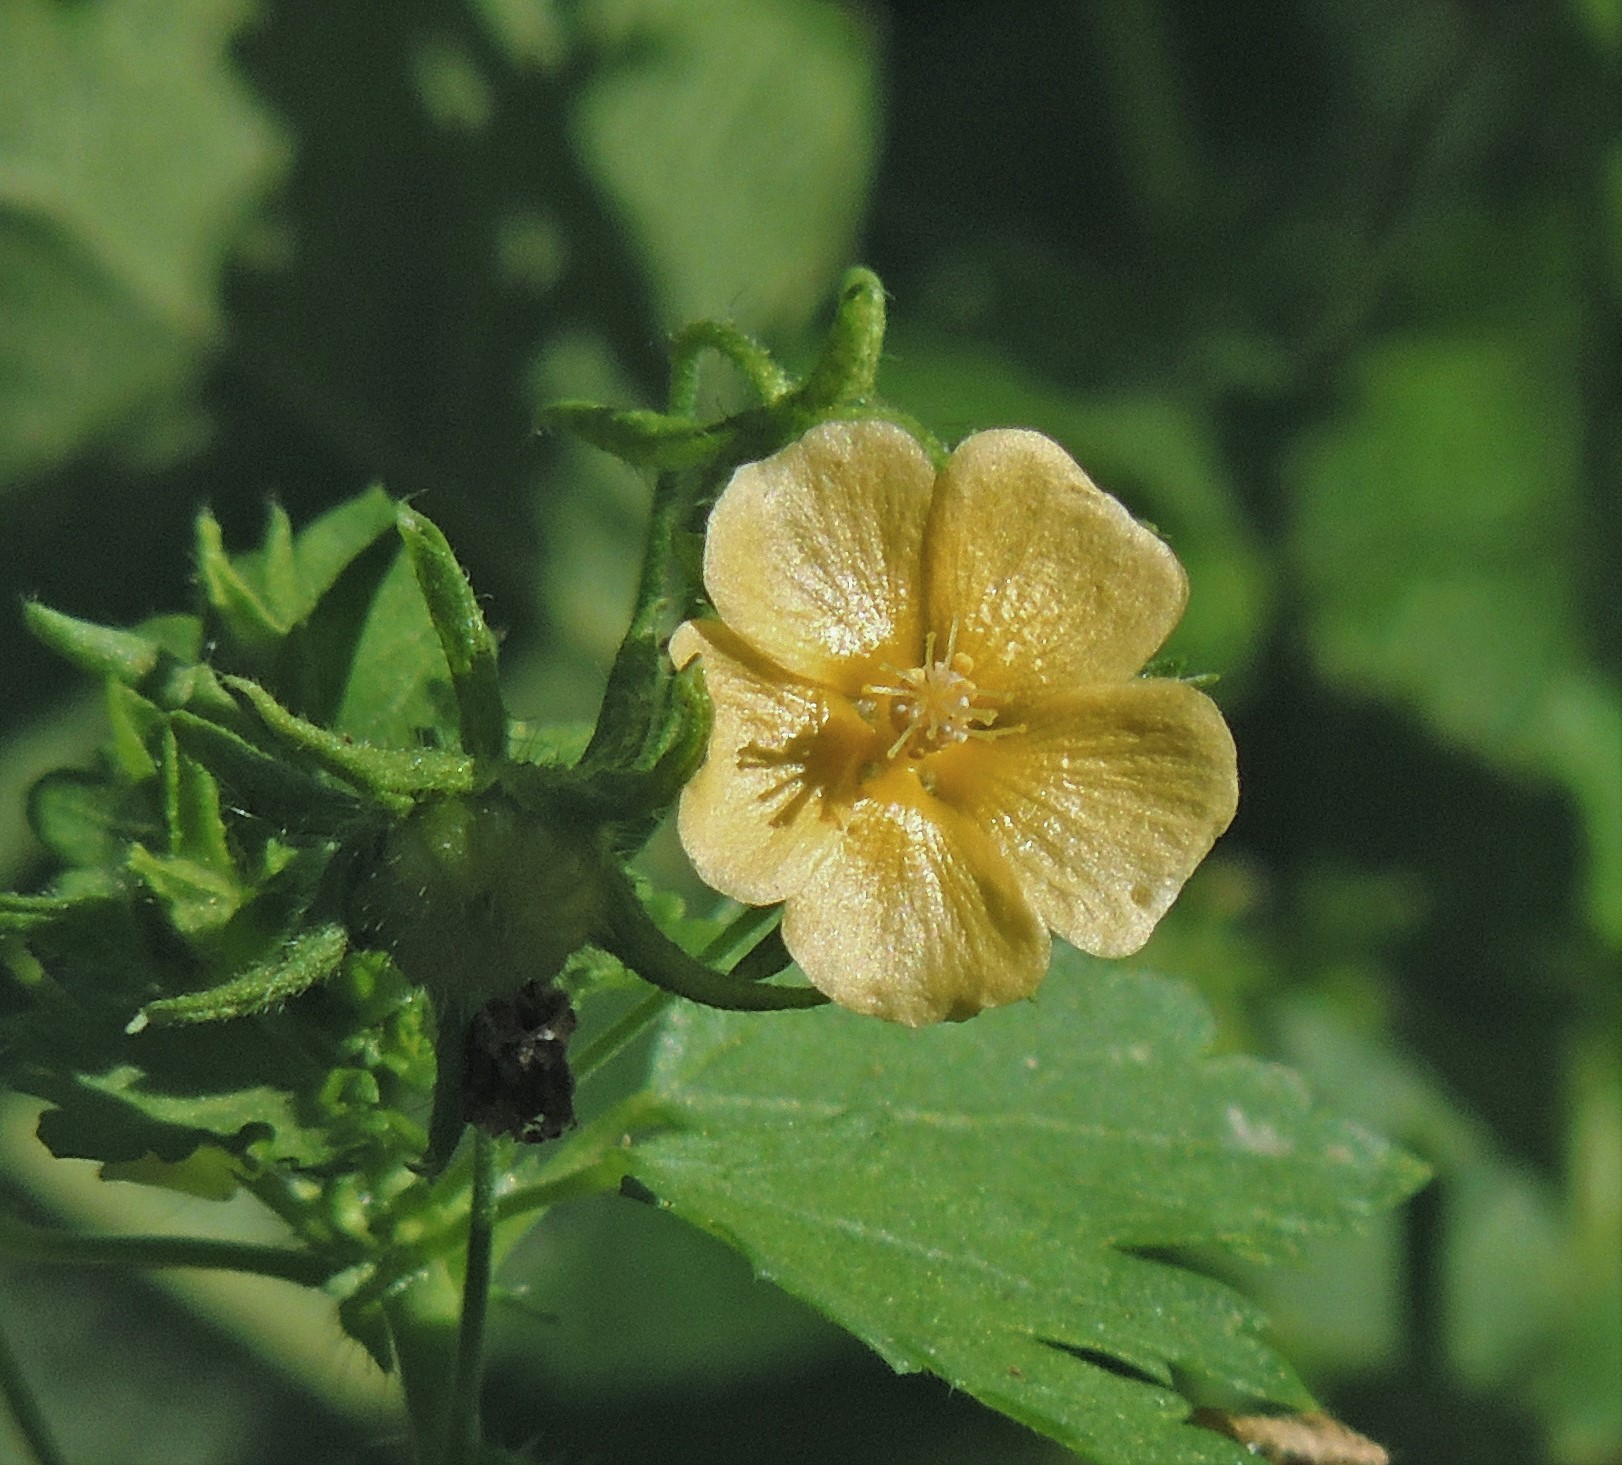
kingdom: Plantae
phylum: Tracheophyta
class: Magnoliopsida
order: Malvales
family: Malvaceae
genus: Modiolastrum
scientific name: Modiolastrum malvifolium
